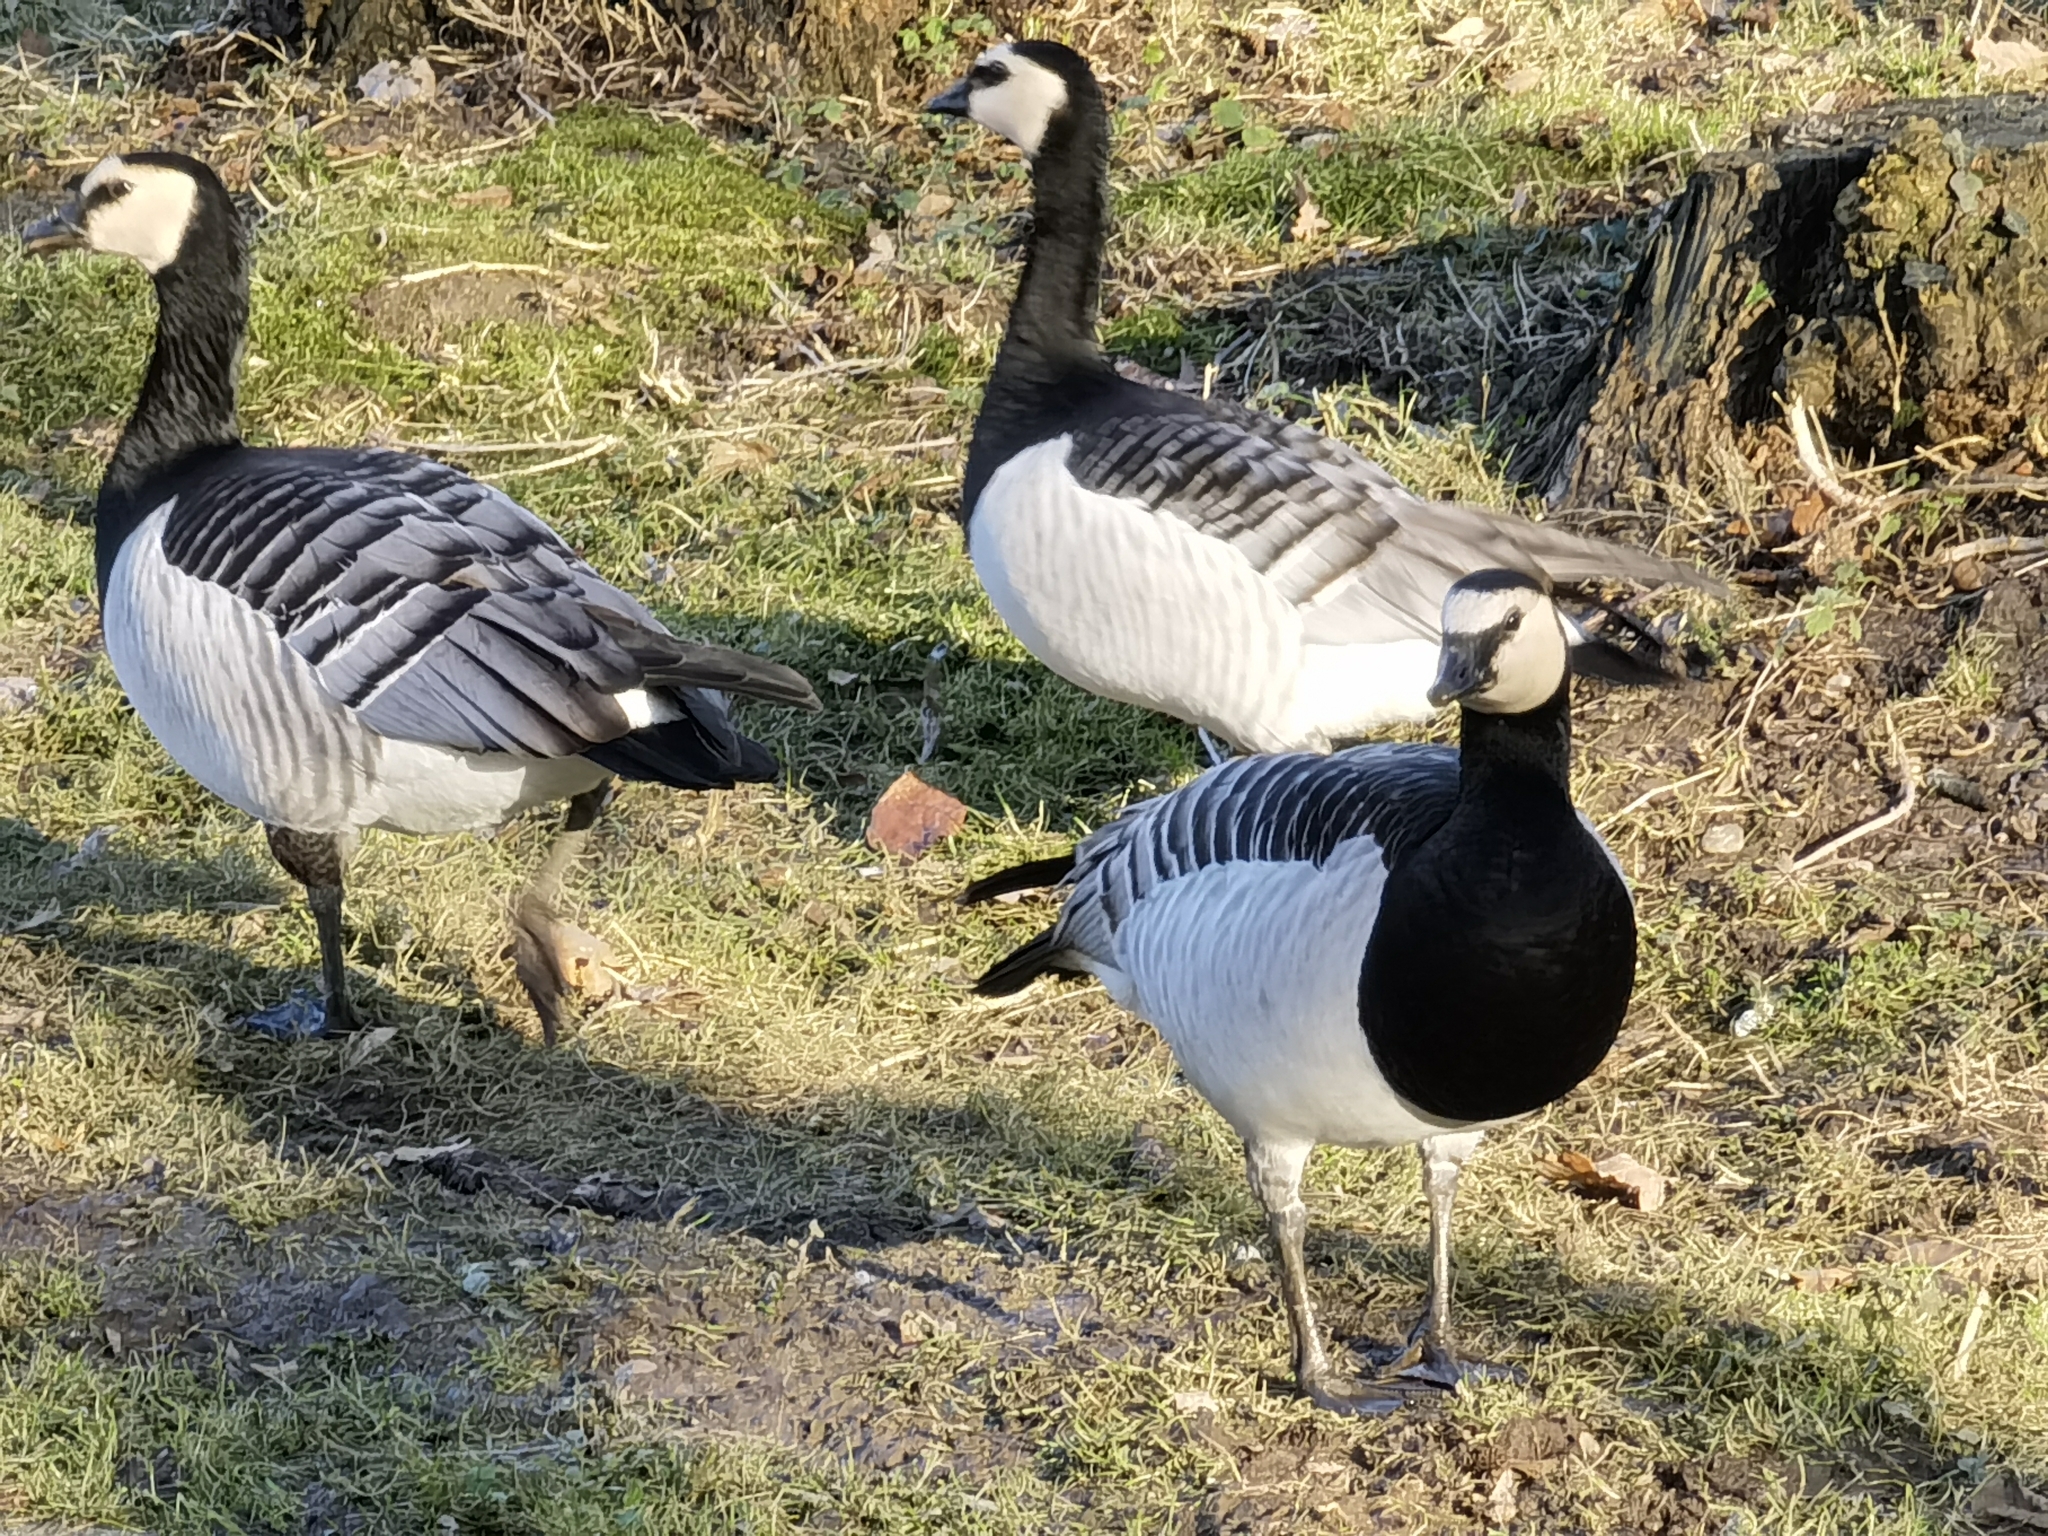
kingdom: Animalia
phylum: Chordata
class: Aves
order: Anseriformes
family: Anatidae
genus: Branta
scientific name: Branta leucopsis
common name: Barnacle goose
